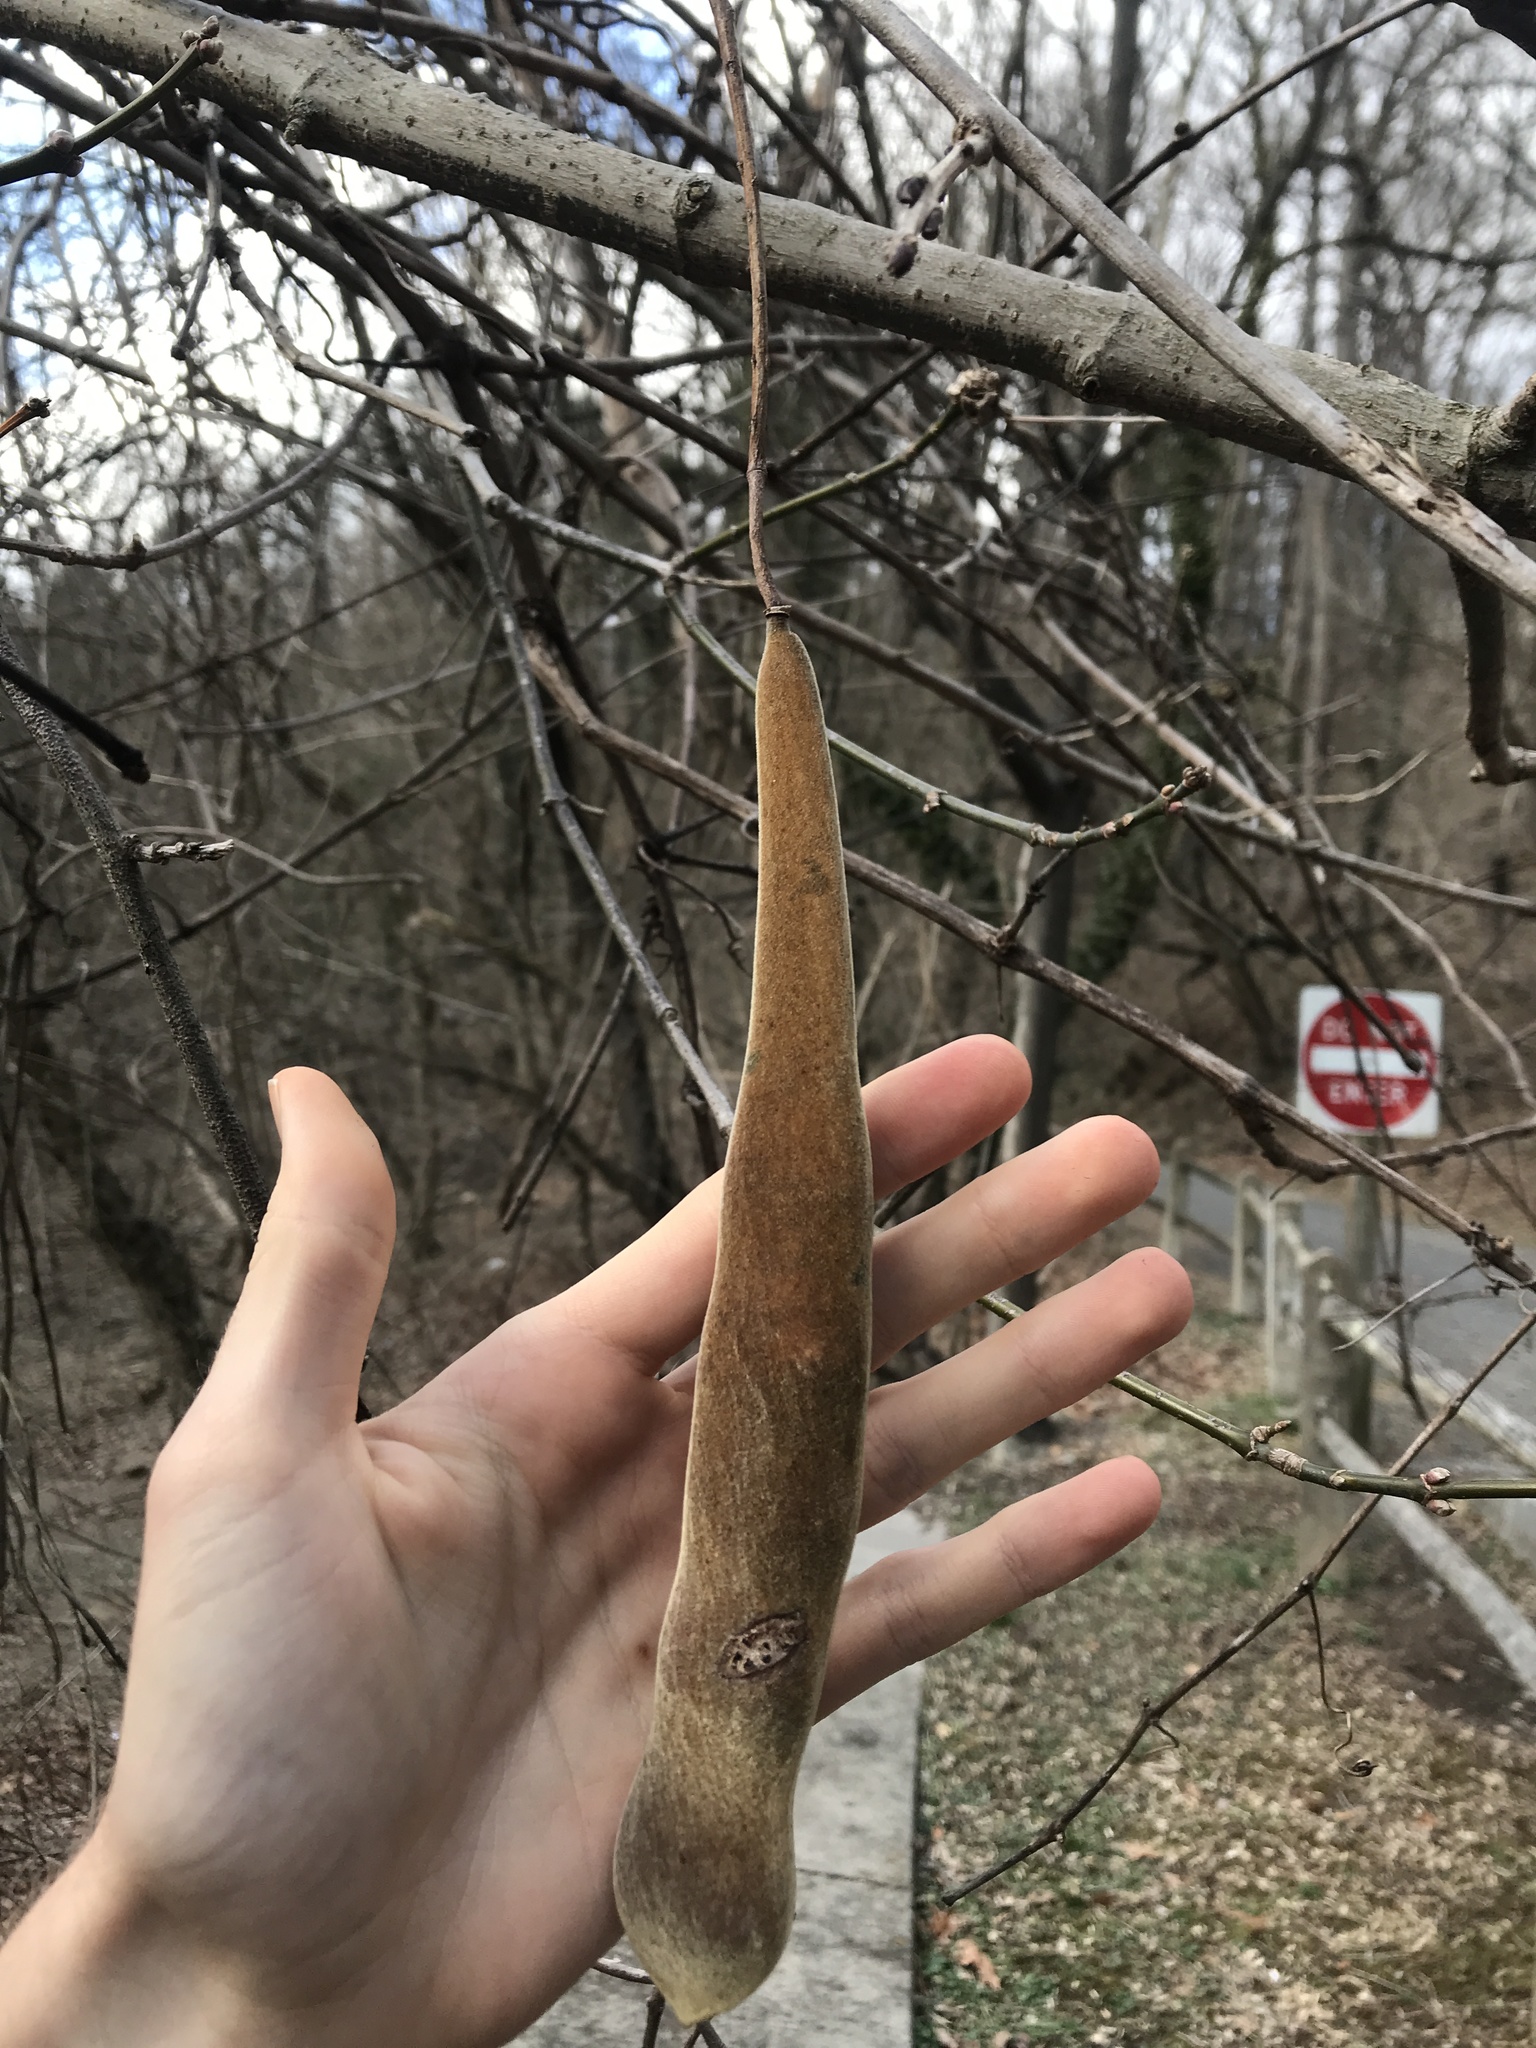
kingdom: Plantae
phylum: Tracheophyta
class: Magnoliopsida
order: Fabales
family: Fabaceae
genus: Wisteria
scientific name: Wisteria sinensis
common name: Chinese wisteria
